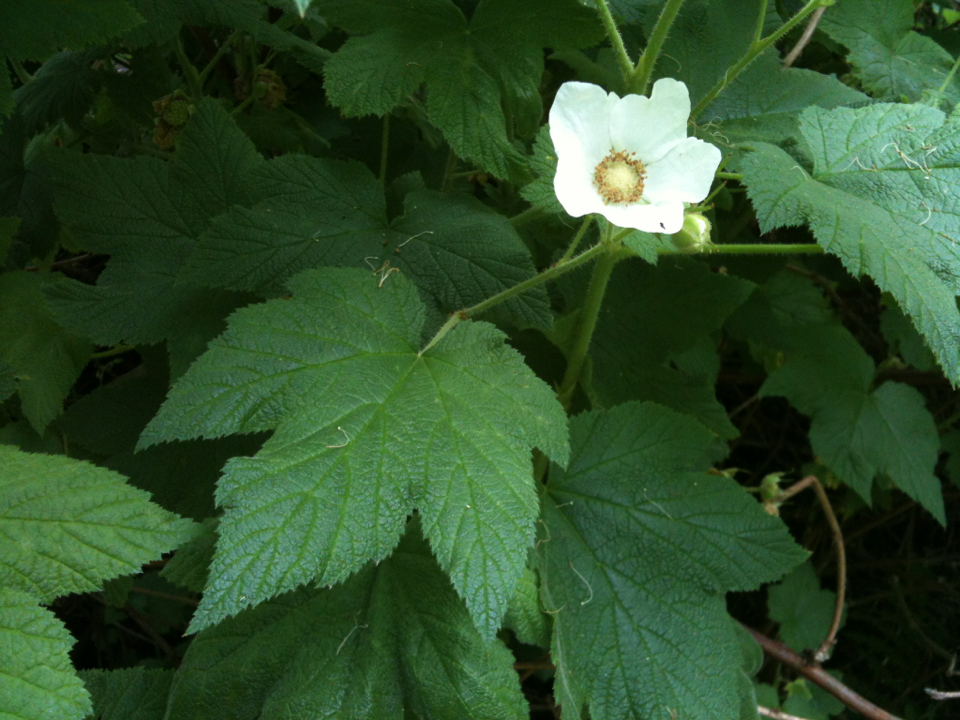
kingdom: Plantae
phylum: Tracheophyta
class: Magnoliopsida
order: Rosales
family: Rosaceae
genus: Rubus
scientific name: Rubus parviflorus
